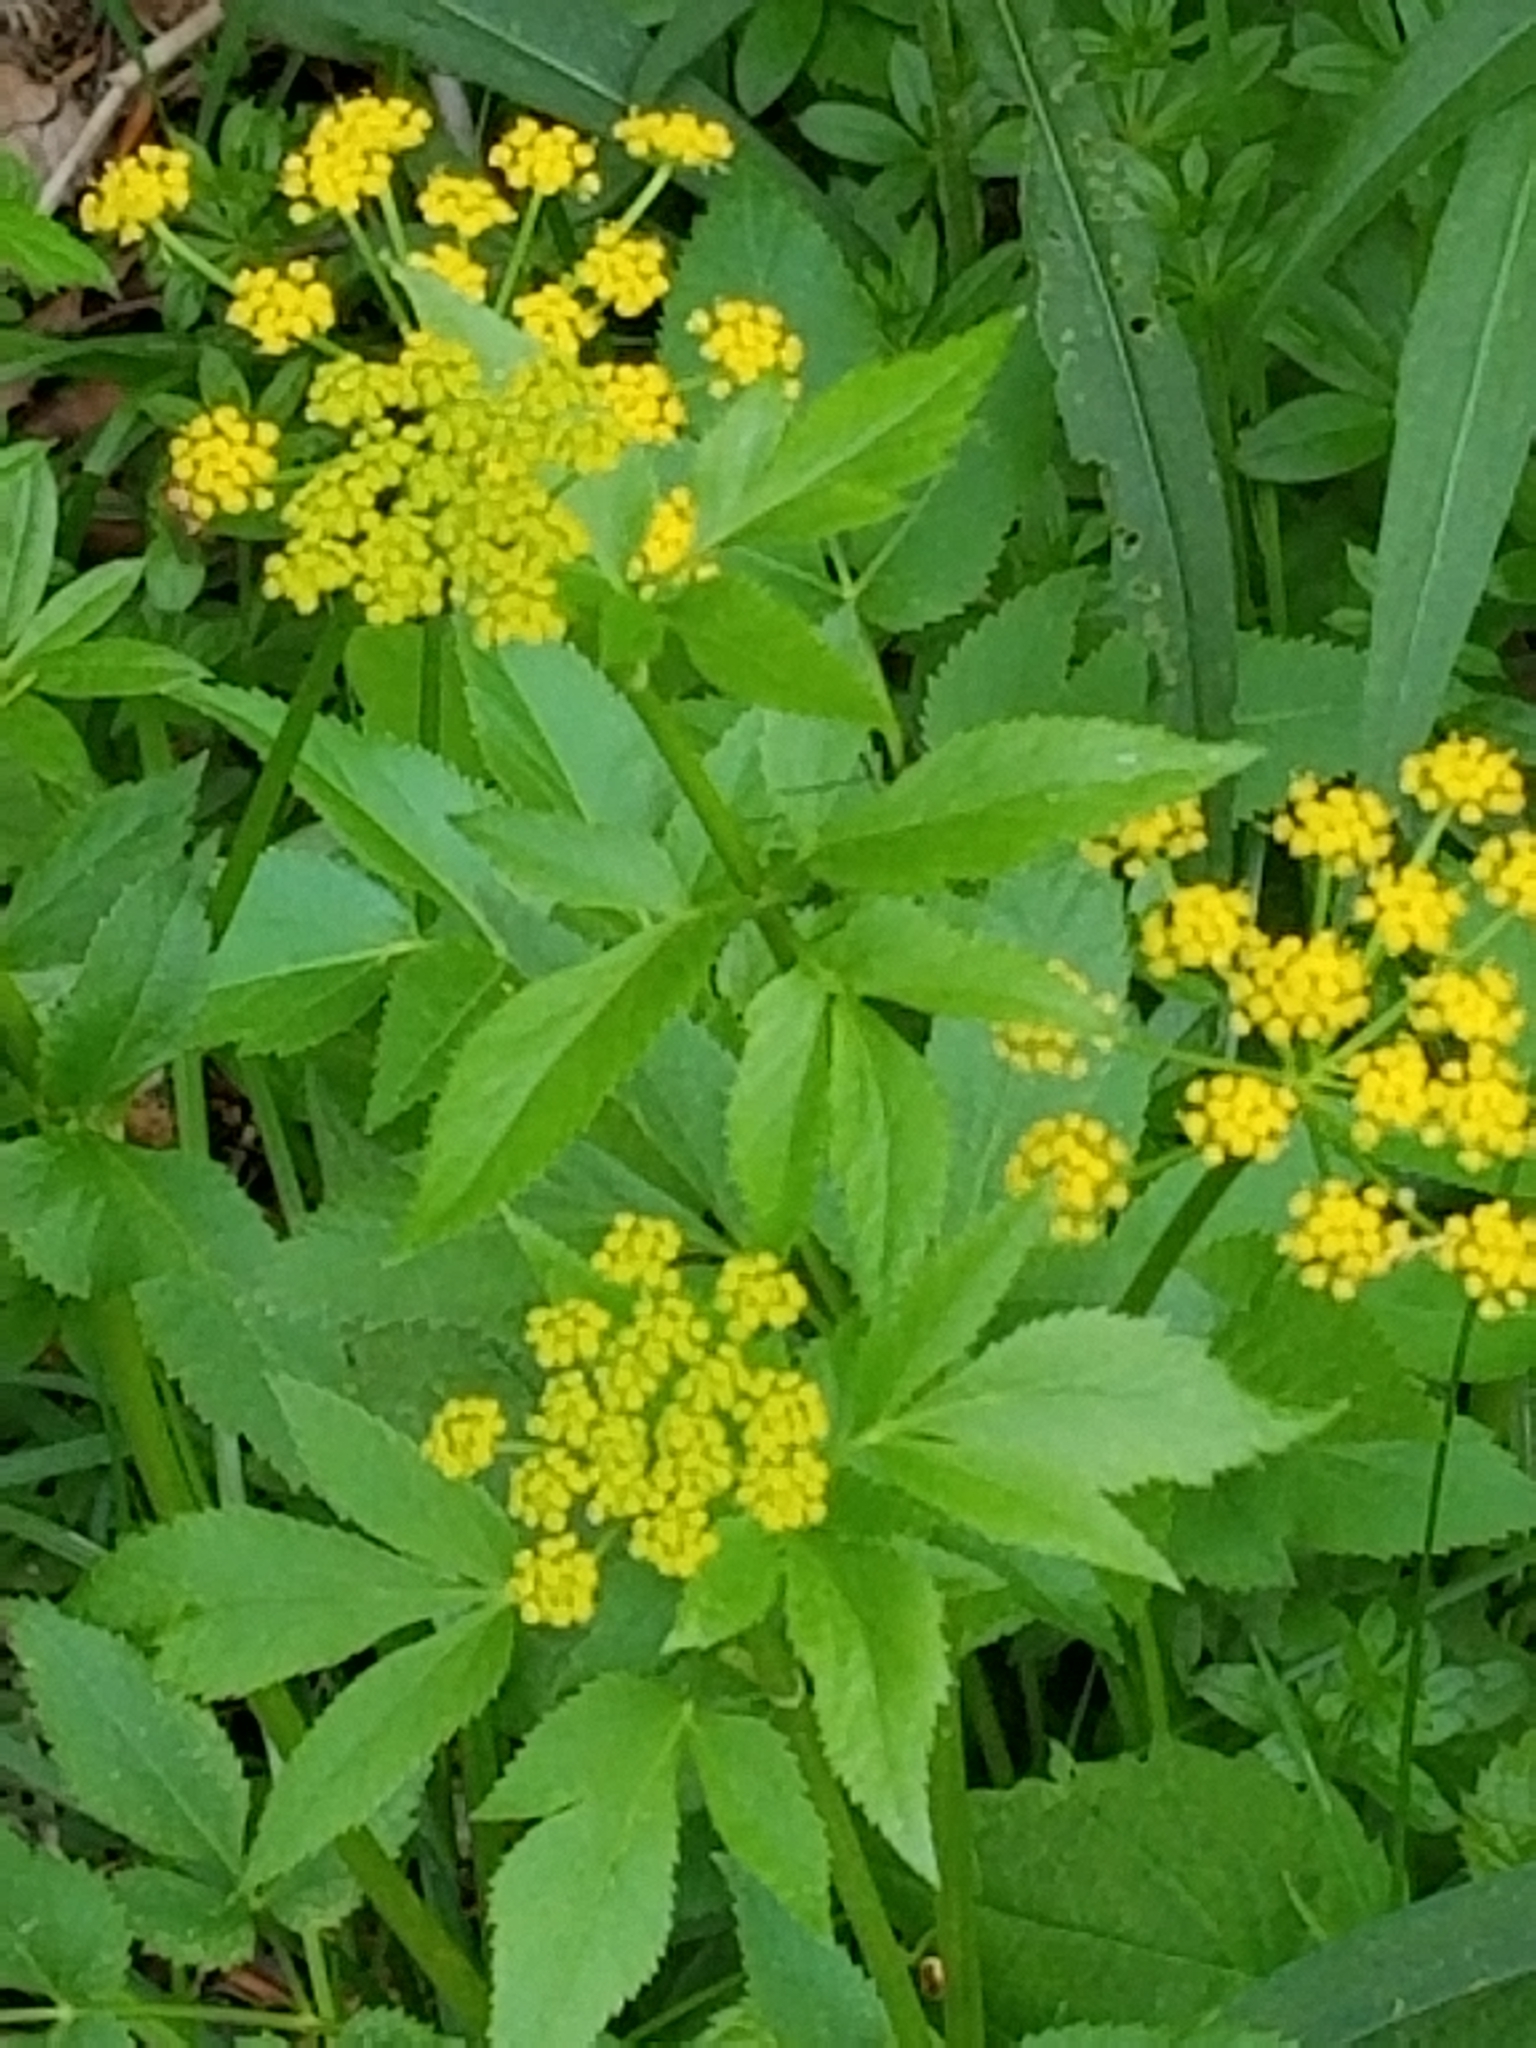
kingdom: Plantae
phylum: Tracheophyta
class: Magnoliopsida
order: Apiales
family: Apiaceae
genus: Zizia
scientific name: Zizia aurea
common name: Golden alexanders
